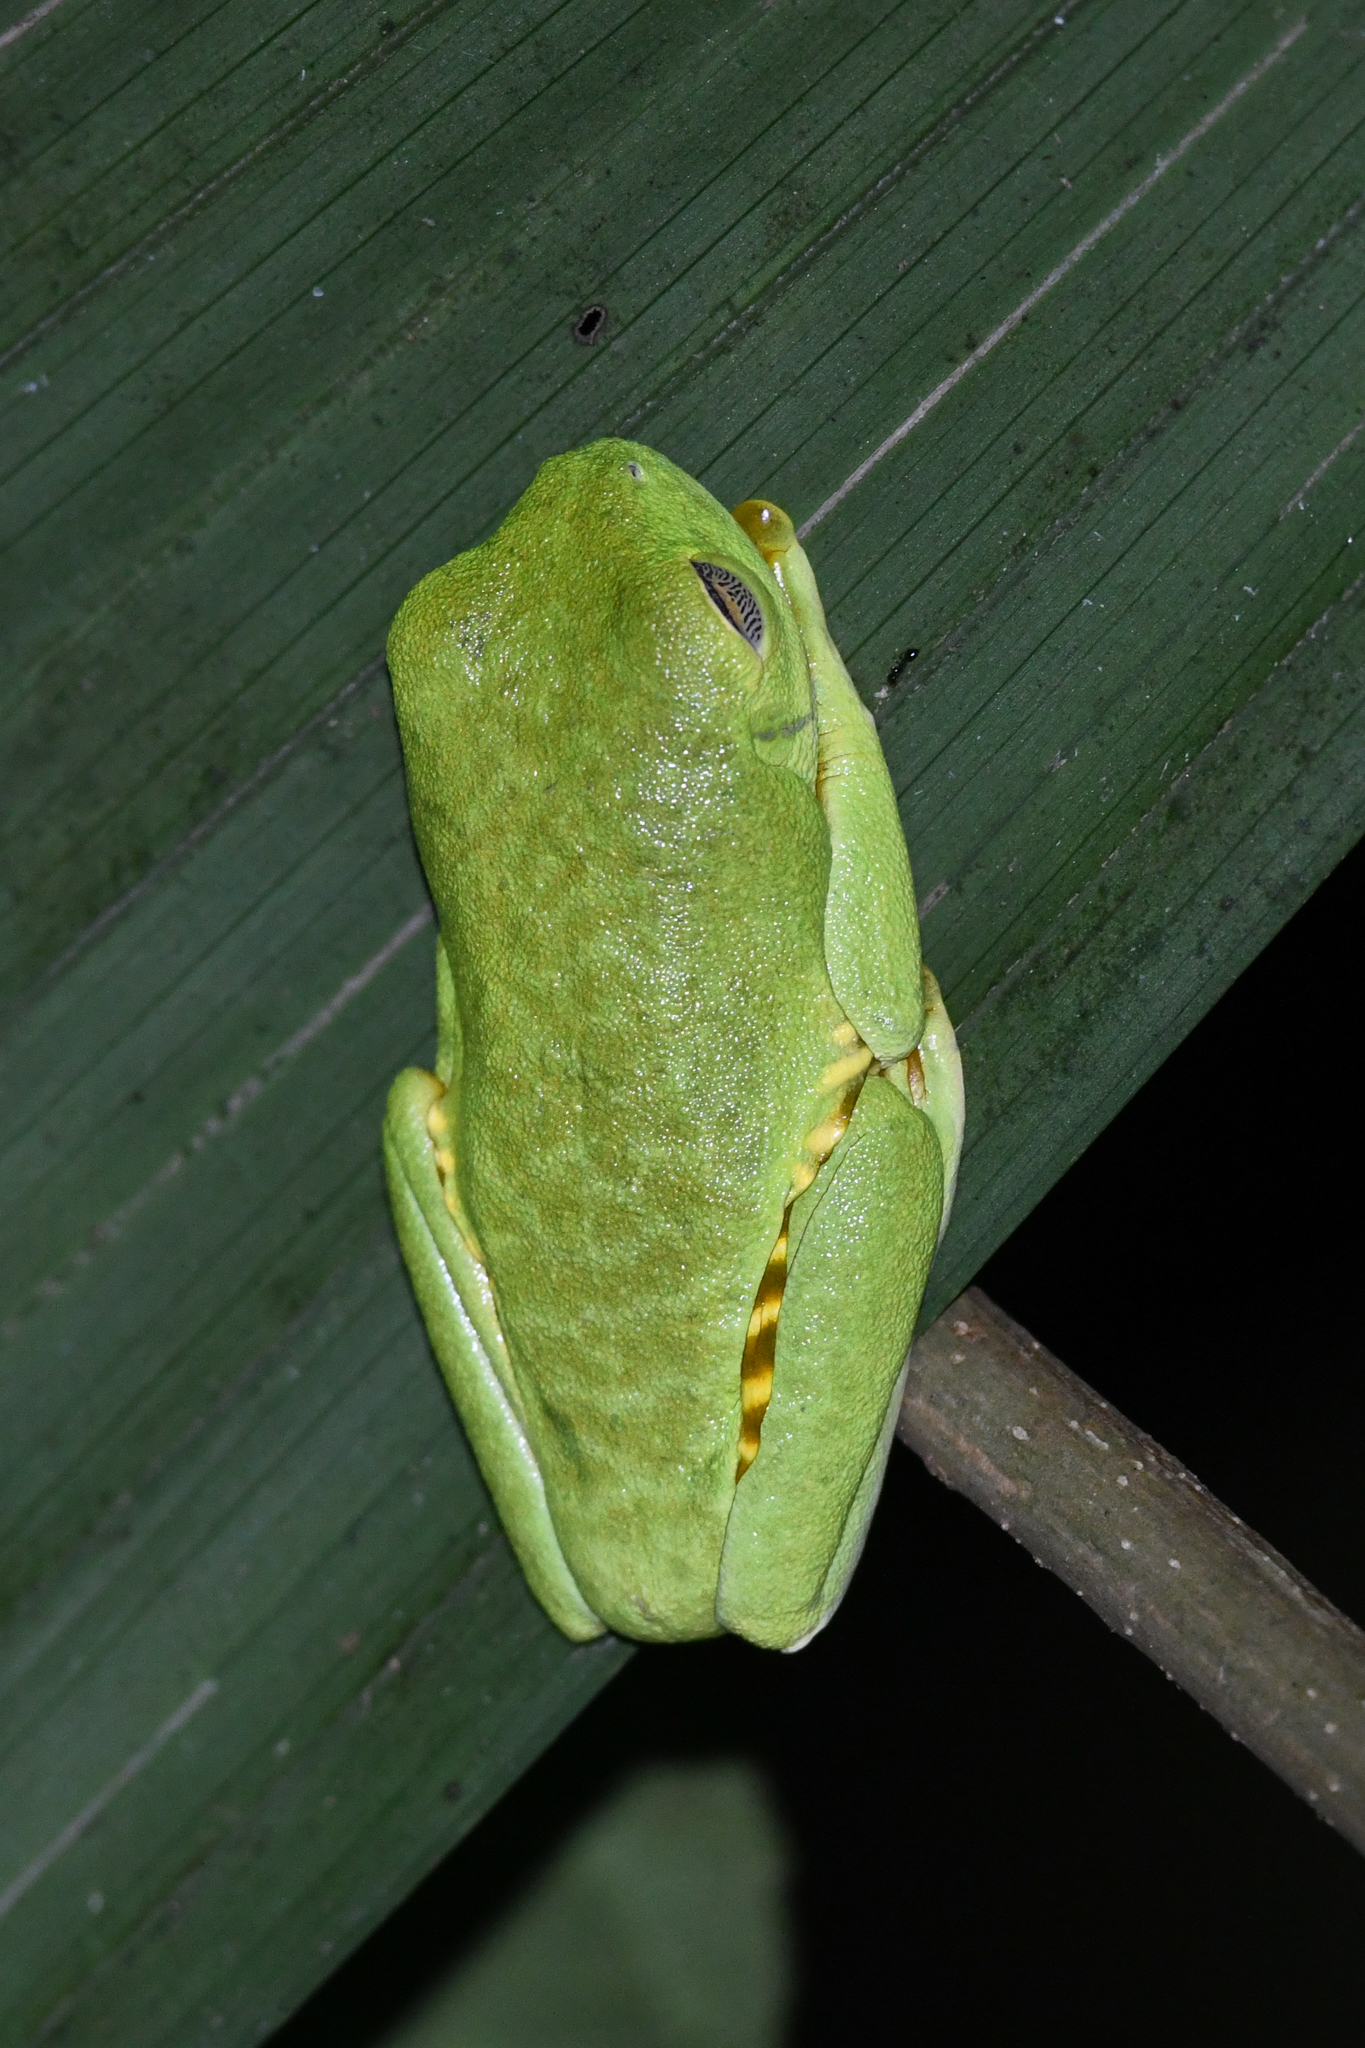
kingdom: Animalia
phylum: Chordata
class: Amphibia
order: Anura
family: Phyllomedusidae
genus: Agalychnis
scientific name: Agalychnis callidryas
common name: Red-eyed treefrog
